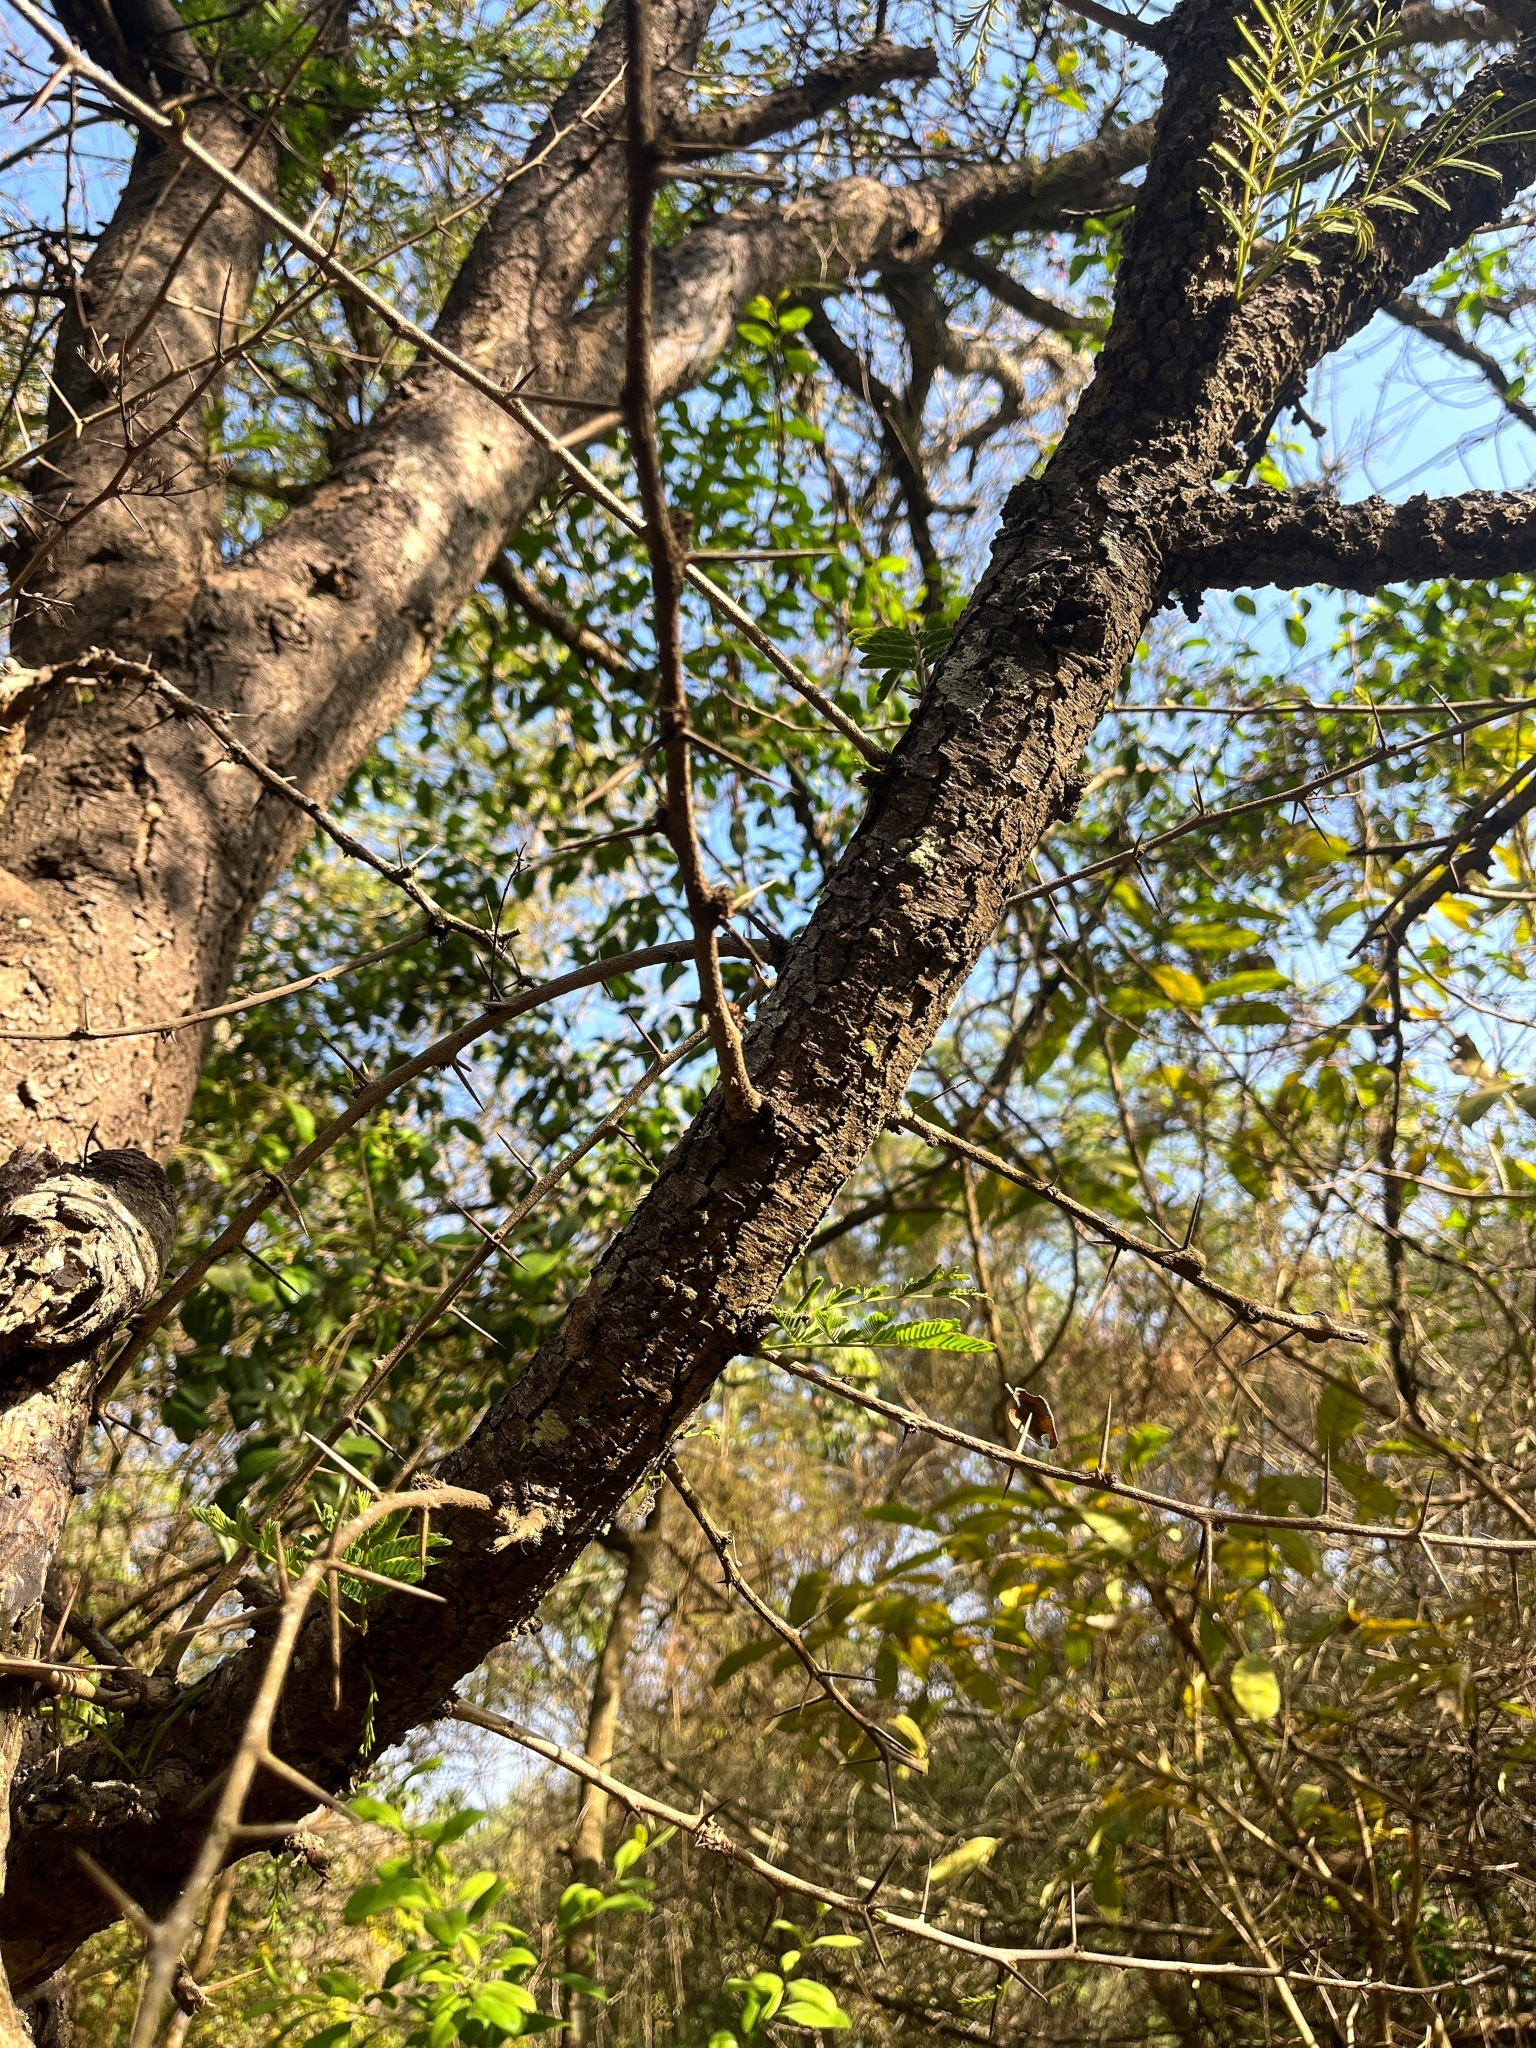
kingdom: Plantae
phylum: Tracheophyta
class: Magnoliopsida
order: Fabales
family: Fabaceae
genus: Vachellia
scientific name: Vachellia leucophloea
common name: Distiller's acacia
